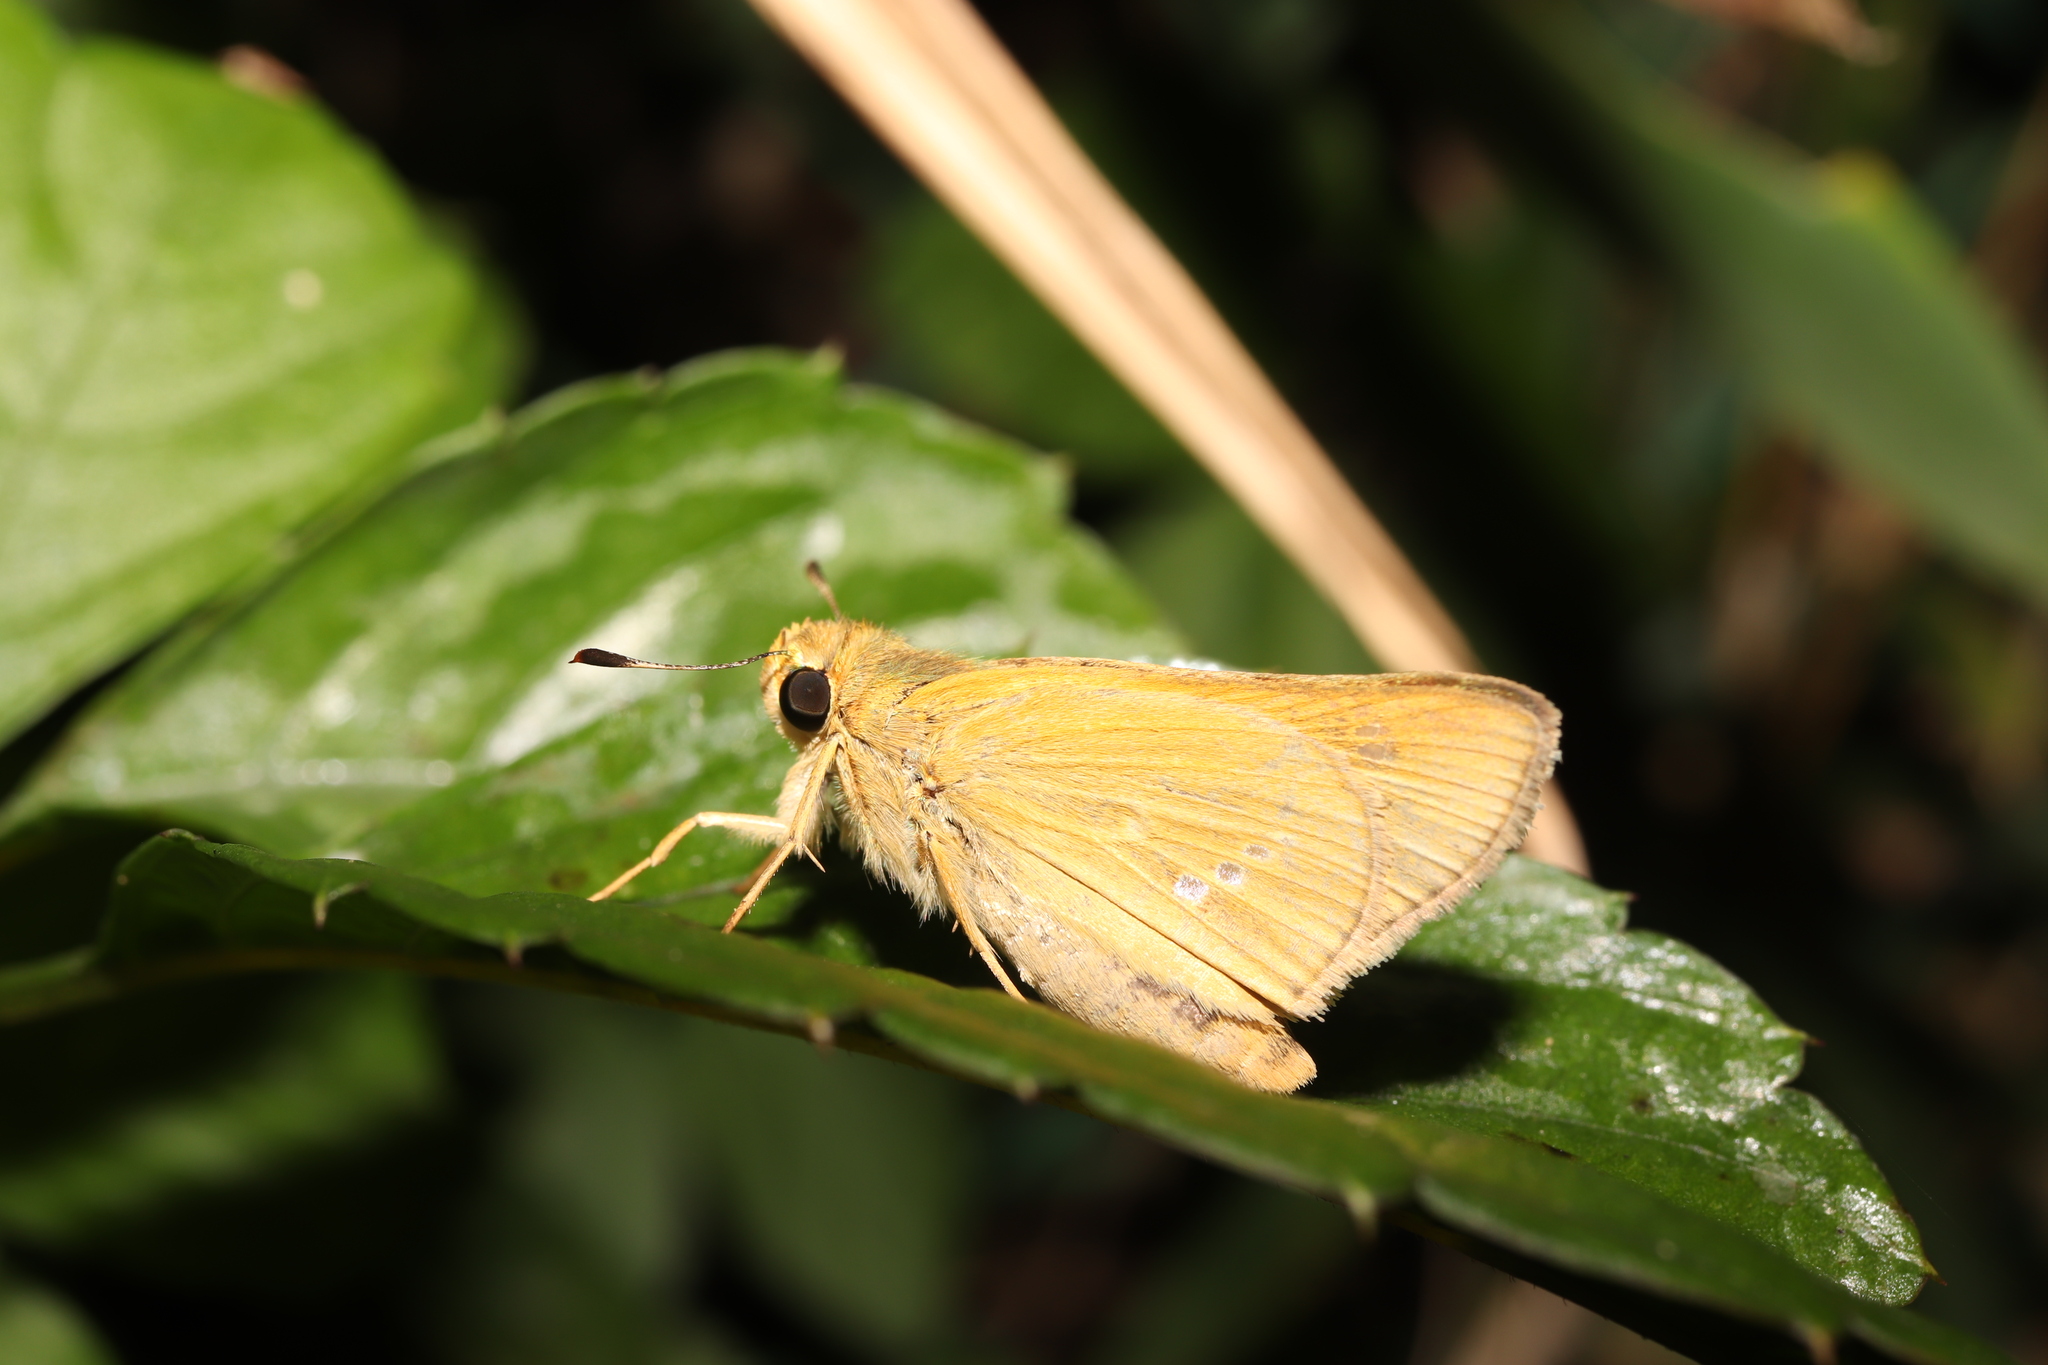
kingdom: Animalia
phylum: Arthropoda
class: Insecta
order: Lepidoptera
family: Hesperiidae
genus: Parnara
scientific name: Parnara guttatus
